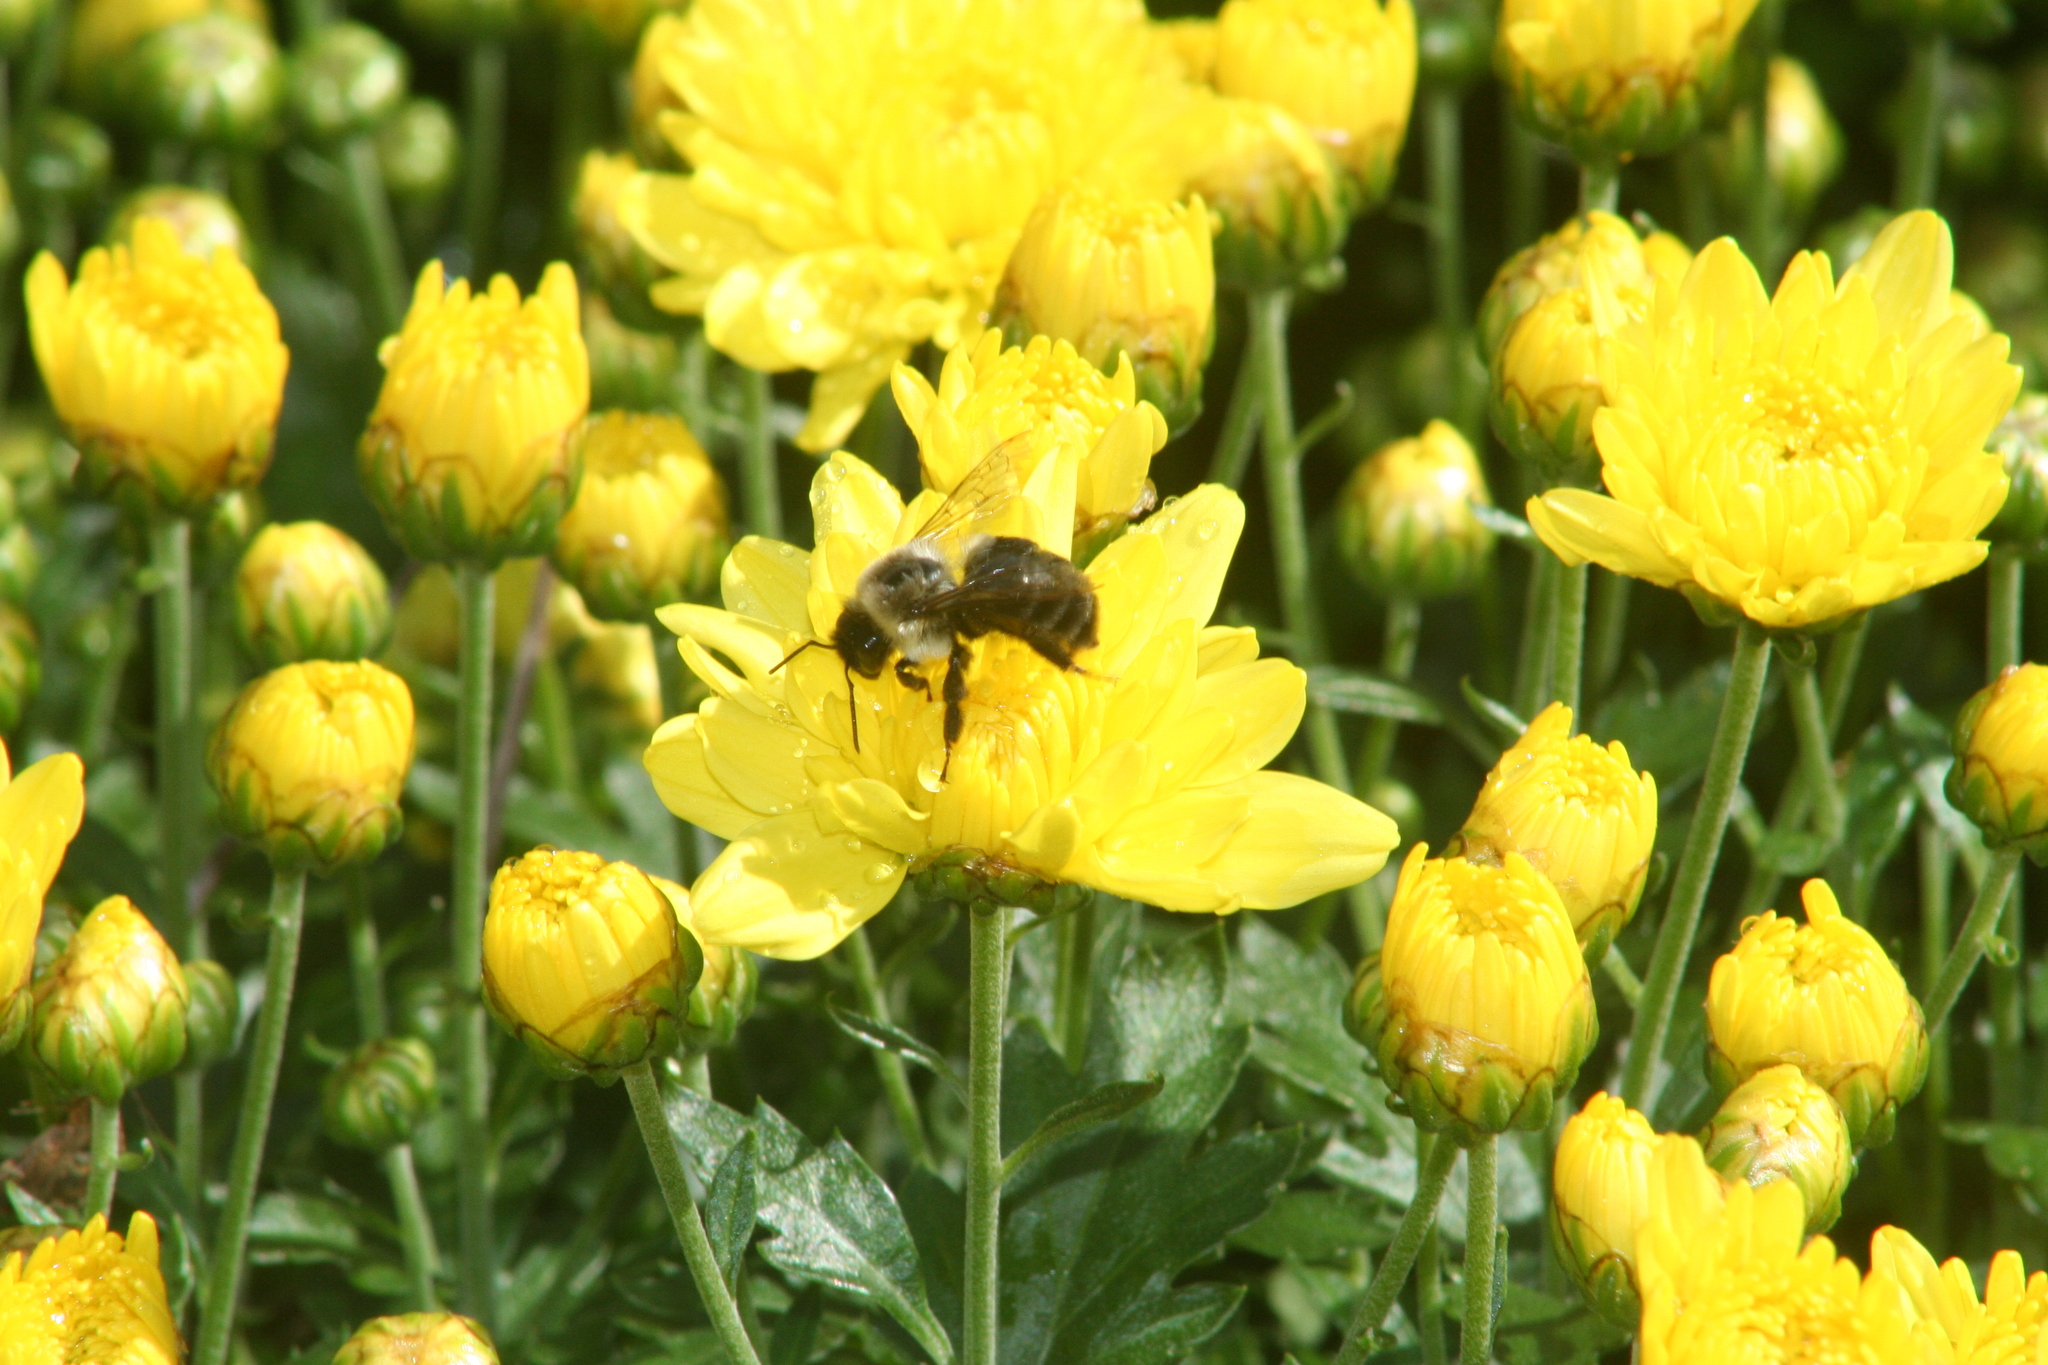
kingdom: Animalia
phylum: Arthropoda
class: Insecta
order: Hymenoptera
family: Apidae
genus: Bombus
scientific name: Bombus impatiens
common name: Common eastern bumble bee
